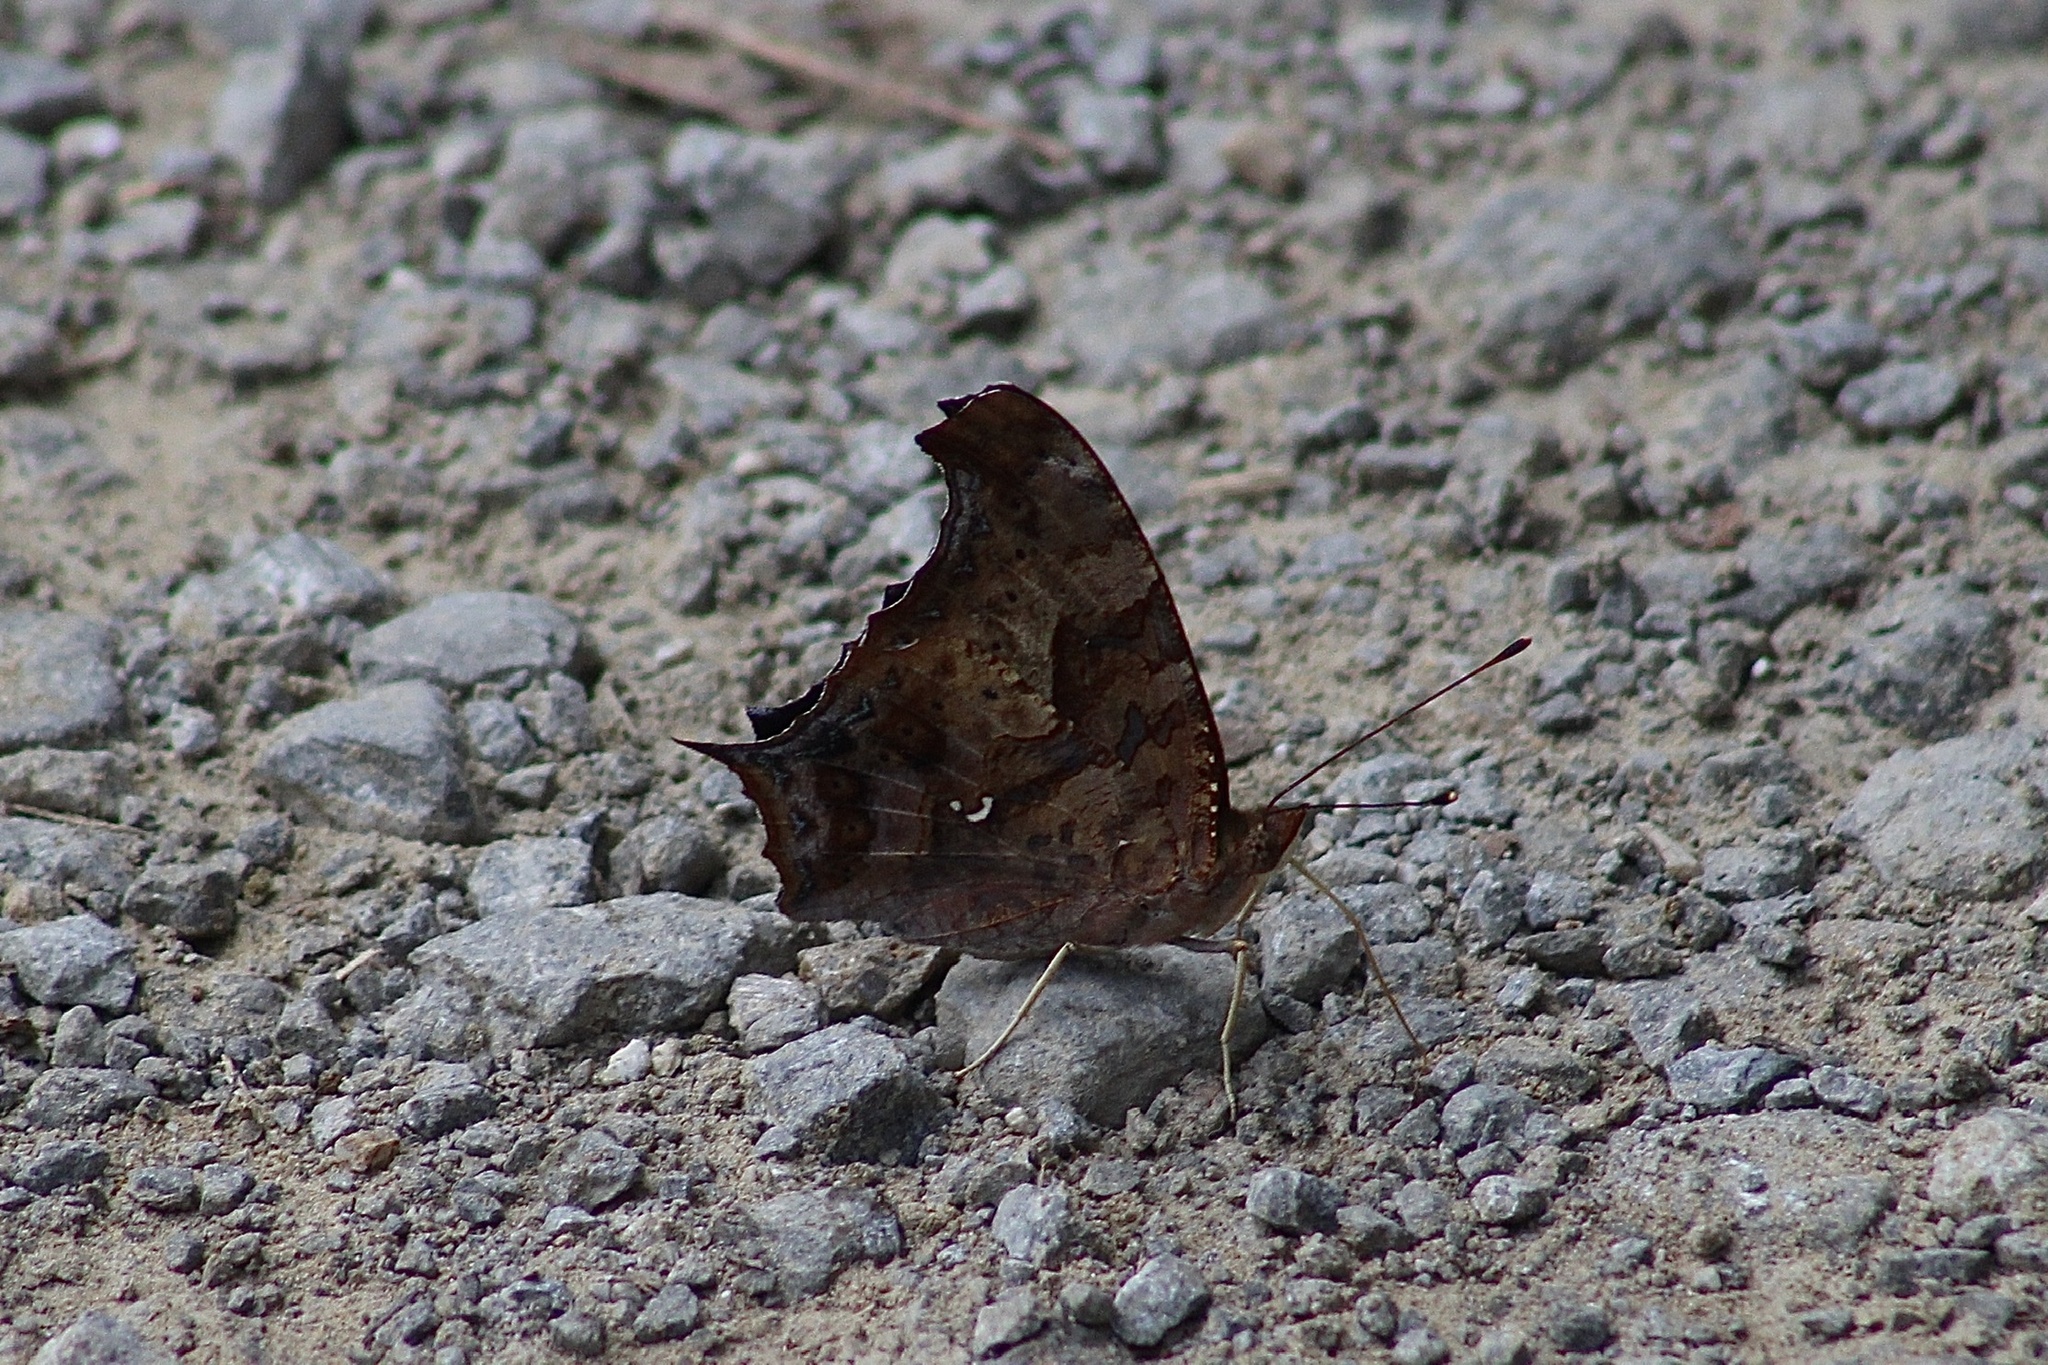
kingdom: Animalia
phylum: Arthropoda
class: Insecta
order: Lepidoptera
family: Nymphalidae
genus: Polygonia
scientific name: Polygonia interrogationis
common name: Question mark
